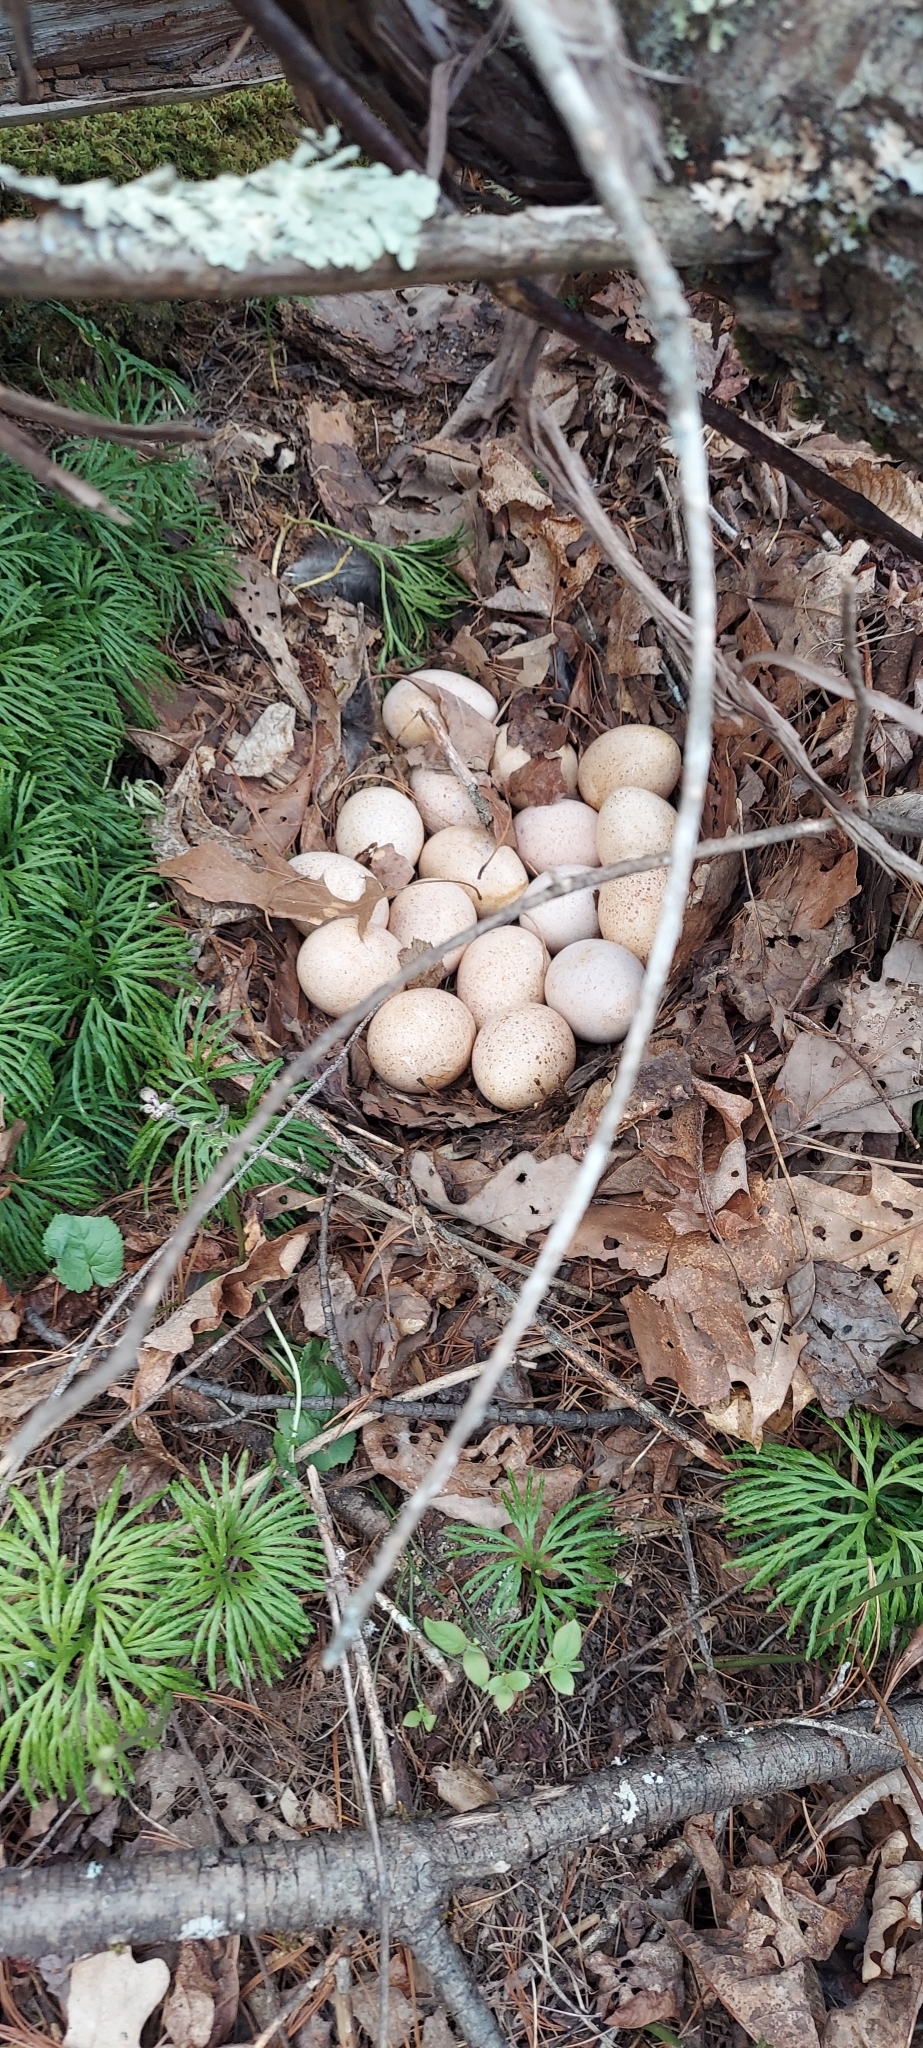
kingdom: Animalia
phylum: Chordata
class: Aves
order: Galliformes
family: Phasianidae
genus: Meleagris
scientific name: Meleagris gallopavo
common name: Wild turkey
